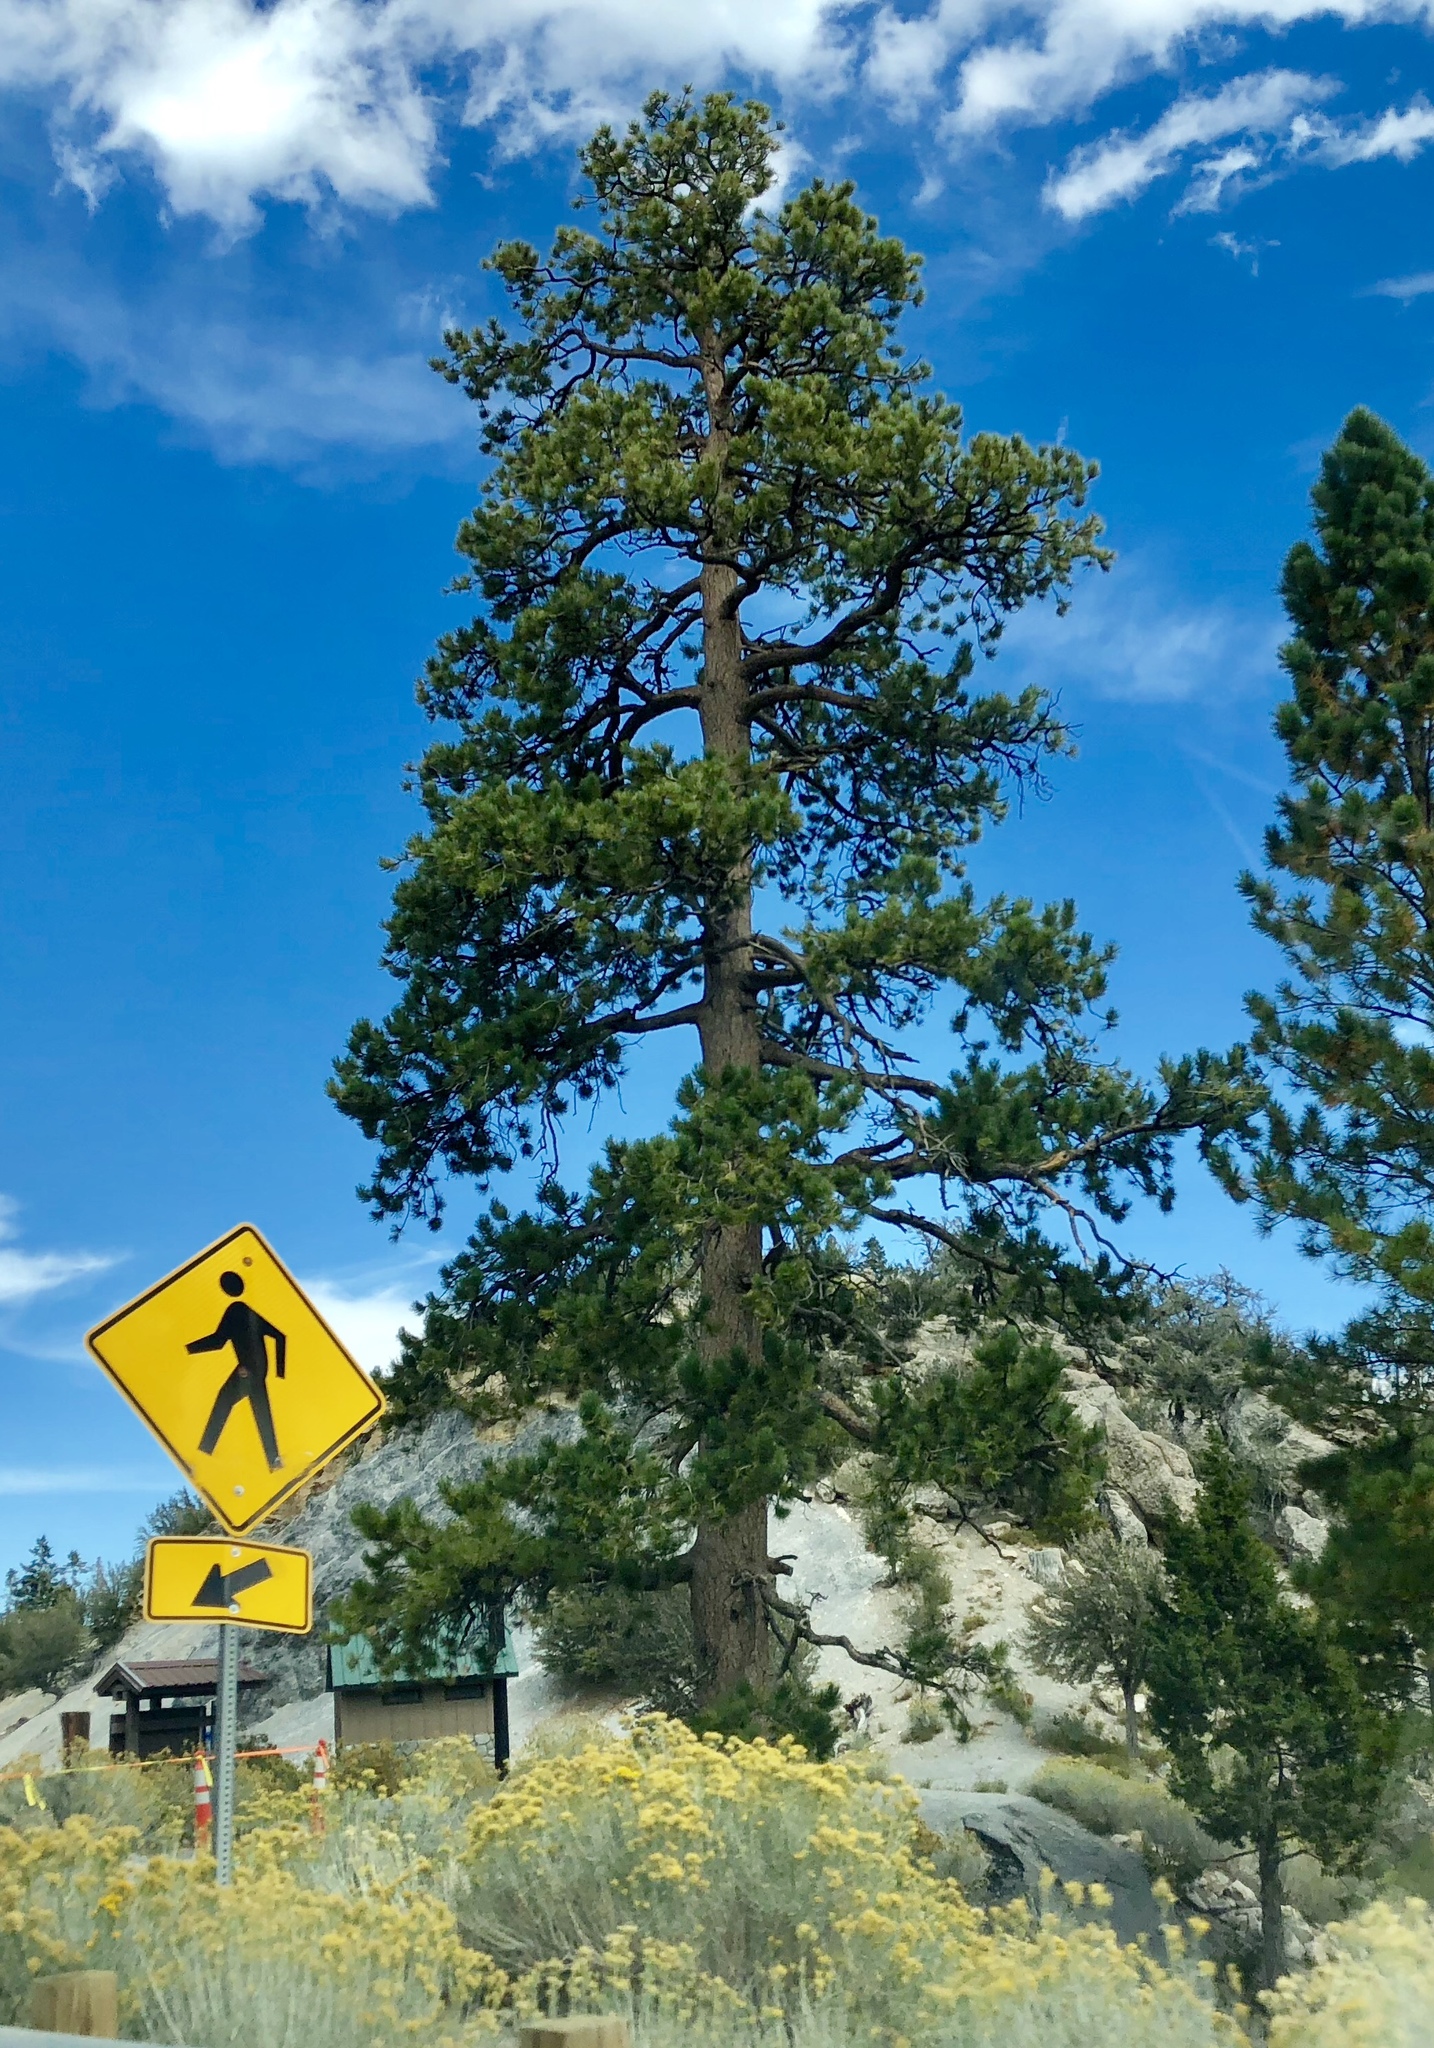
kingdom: Plantae
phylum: Tracheophyta
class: Pinopsida
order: Pinales
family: Pinaceae
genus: Pinus
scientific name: Pinus ponderosa
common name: Western yellow-pine
